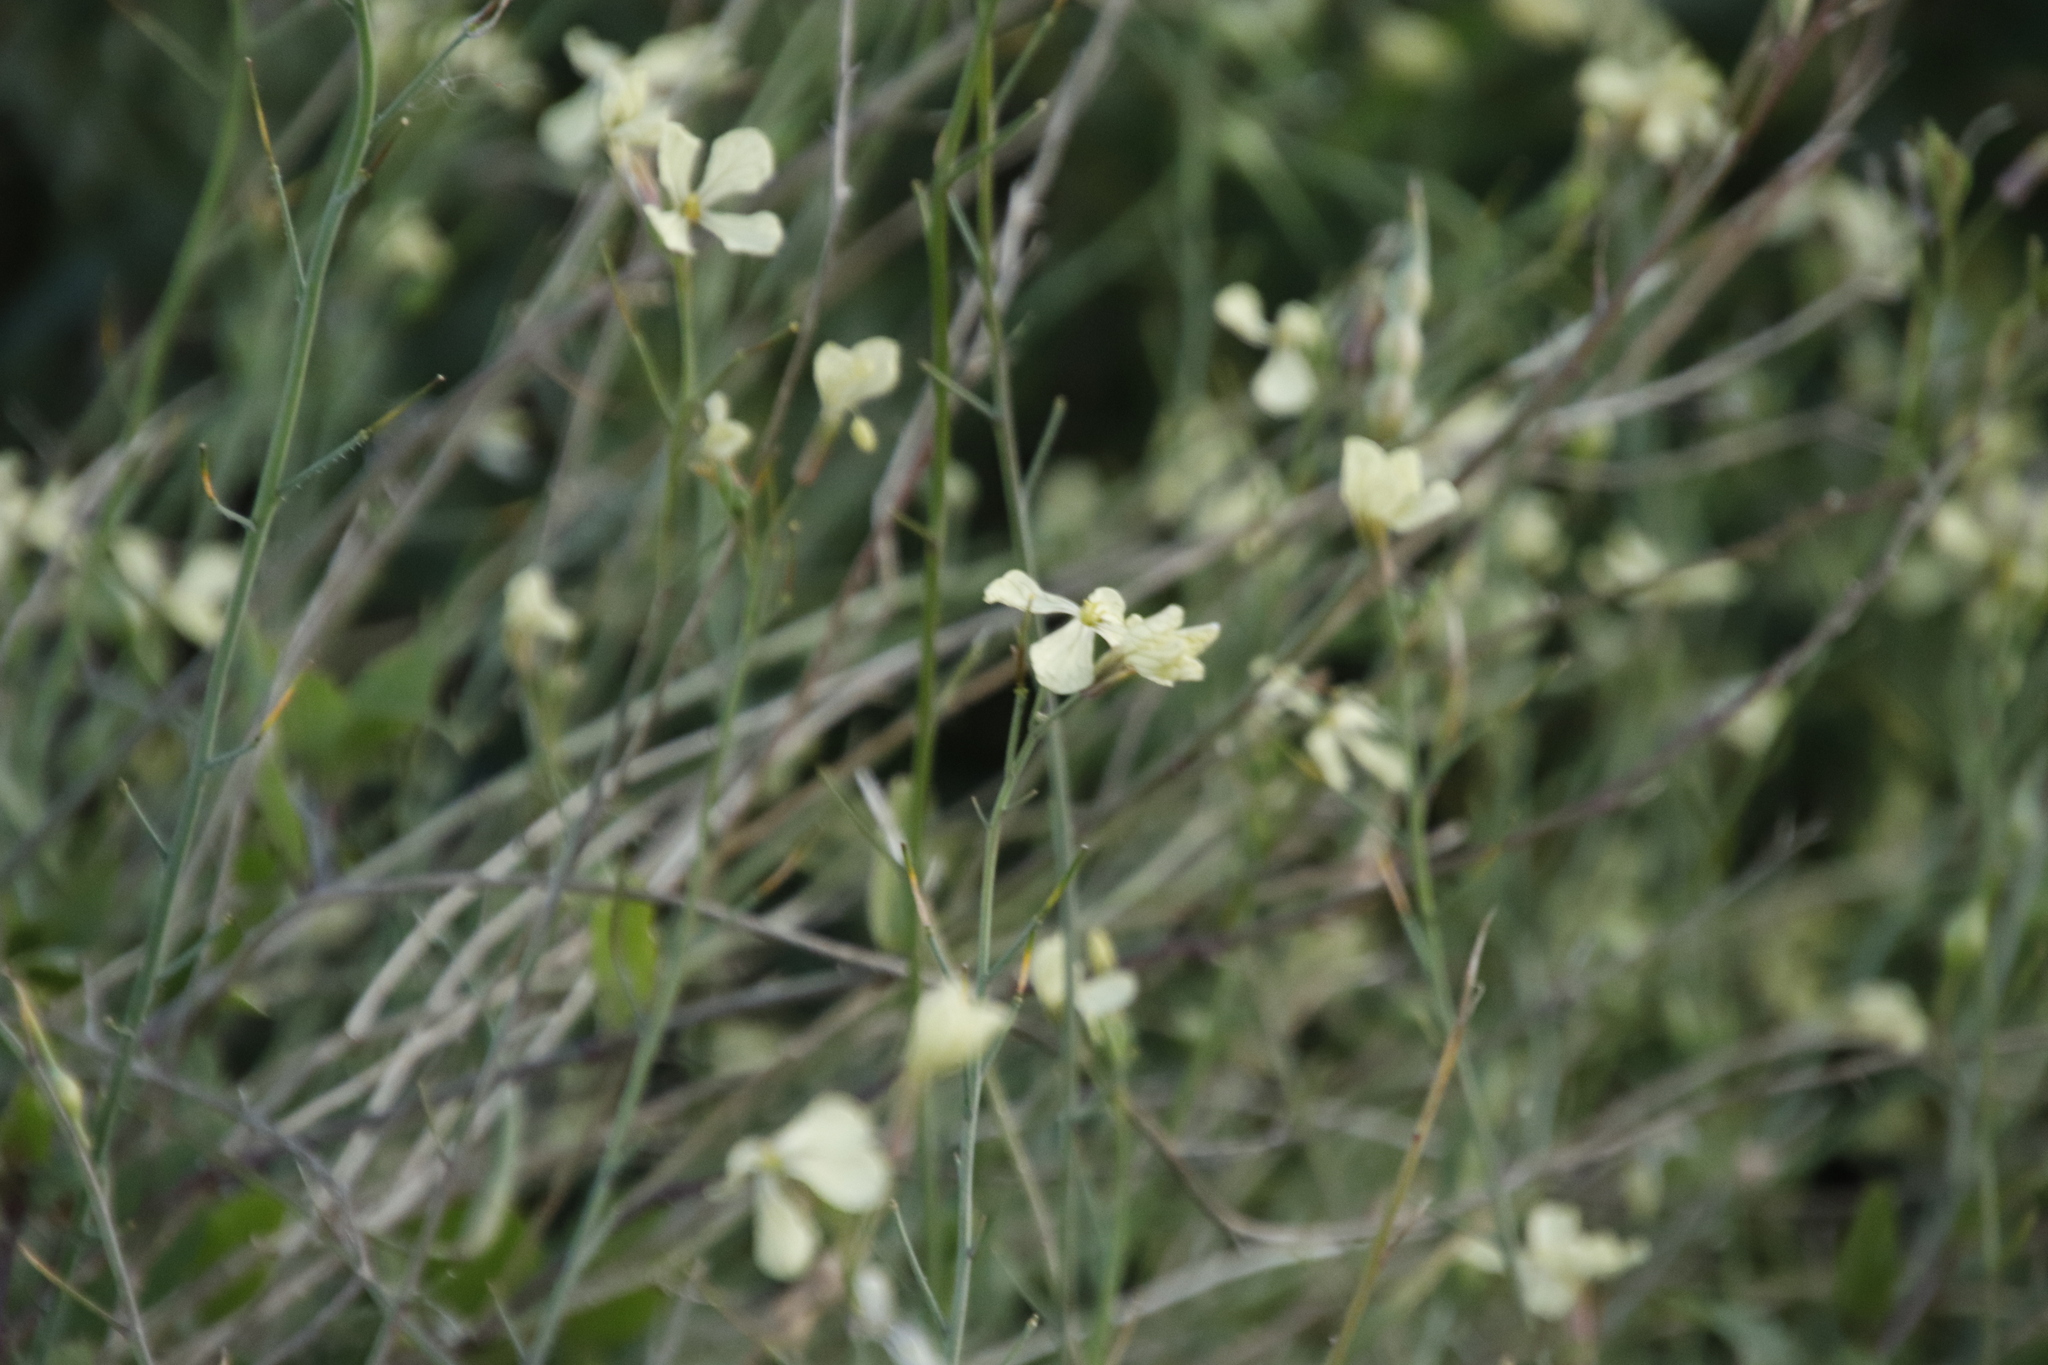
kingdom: Plantae
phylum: Tracheophyta
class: Magnoliopsida
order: Brassicales
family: Brassicaceae
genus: Raphanus
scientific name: Raphanus raphanistrum
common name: Wild radish
